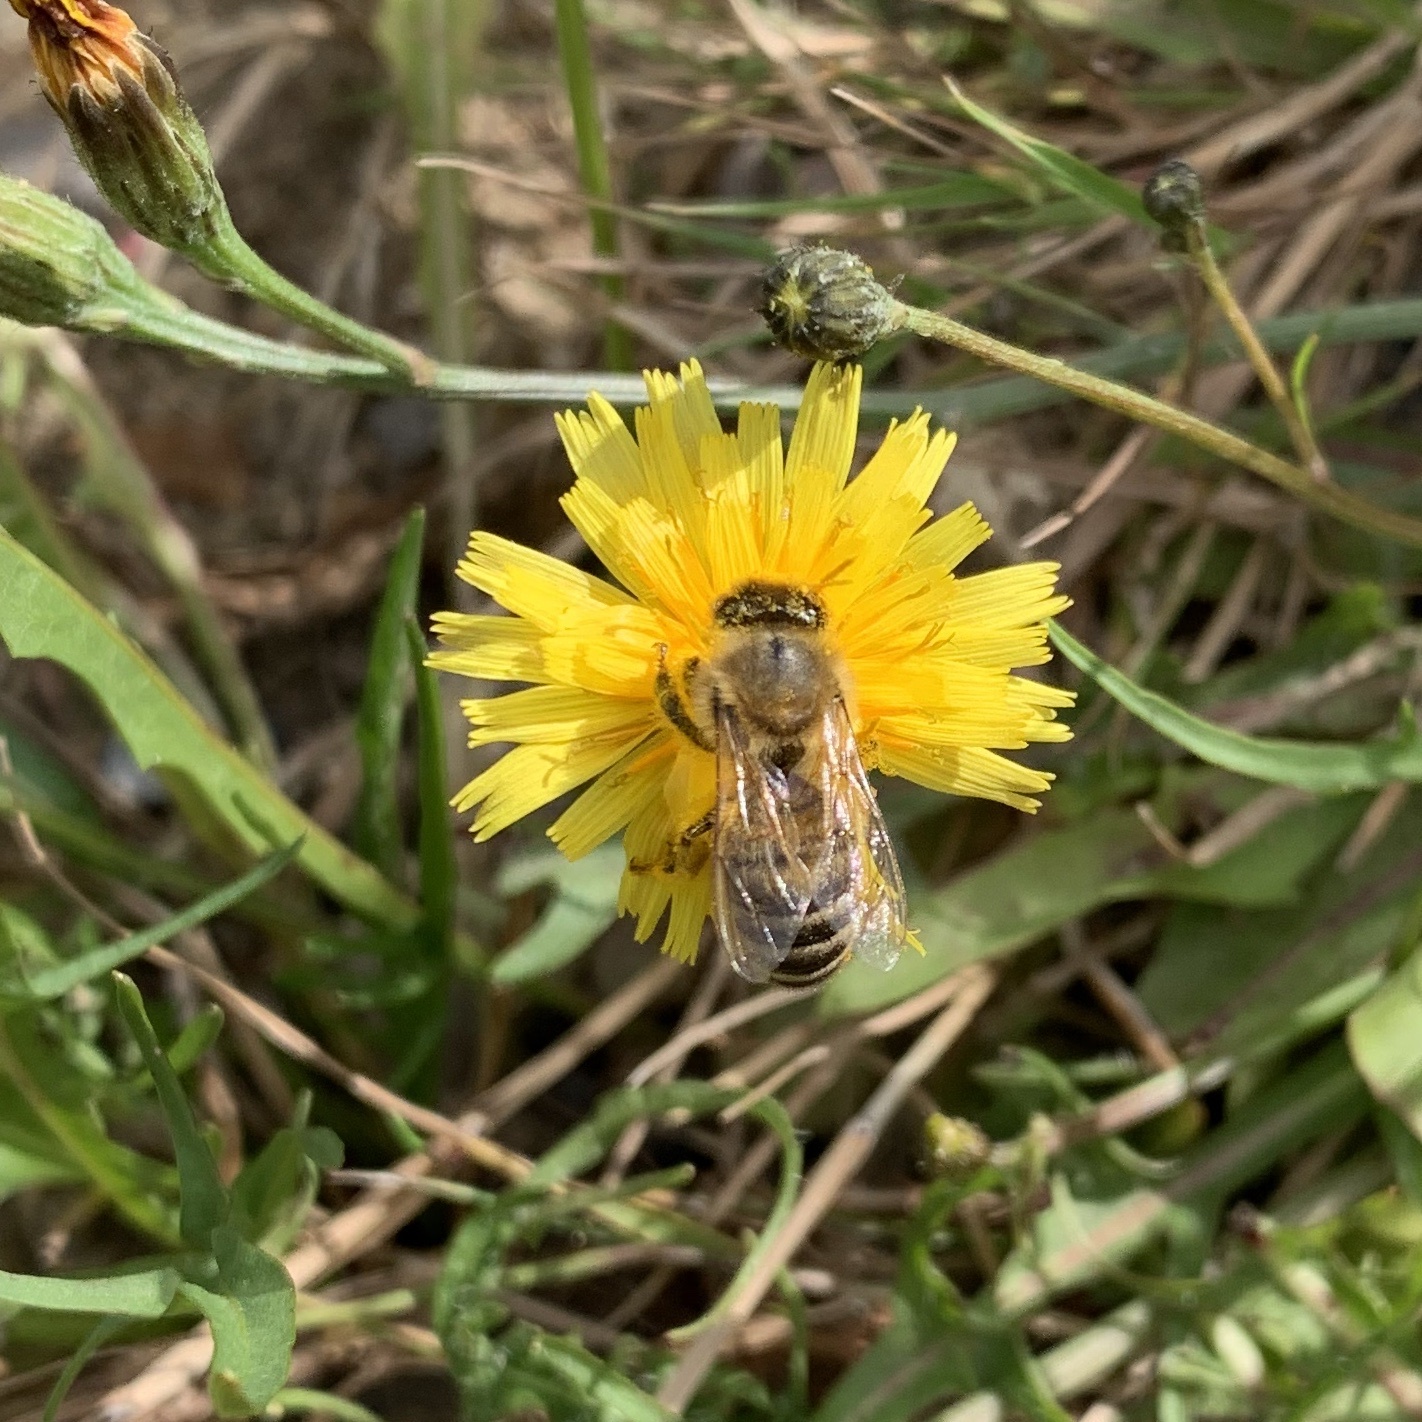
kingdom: Animalia
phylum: Arthropoda
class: Insecta
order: Hymenoptera
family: Apidae
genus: Apis
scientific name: Apis mellifera
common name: Honey bee
